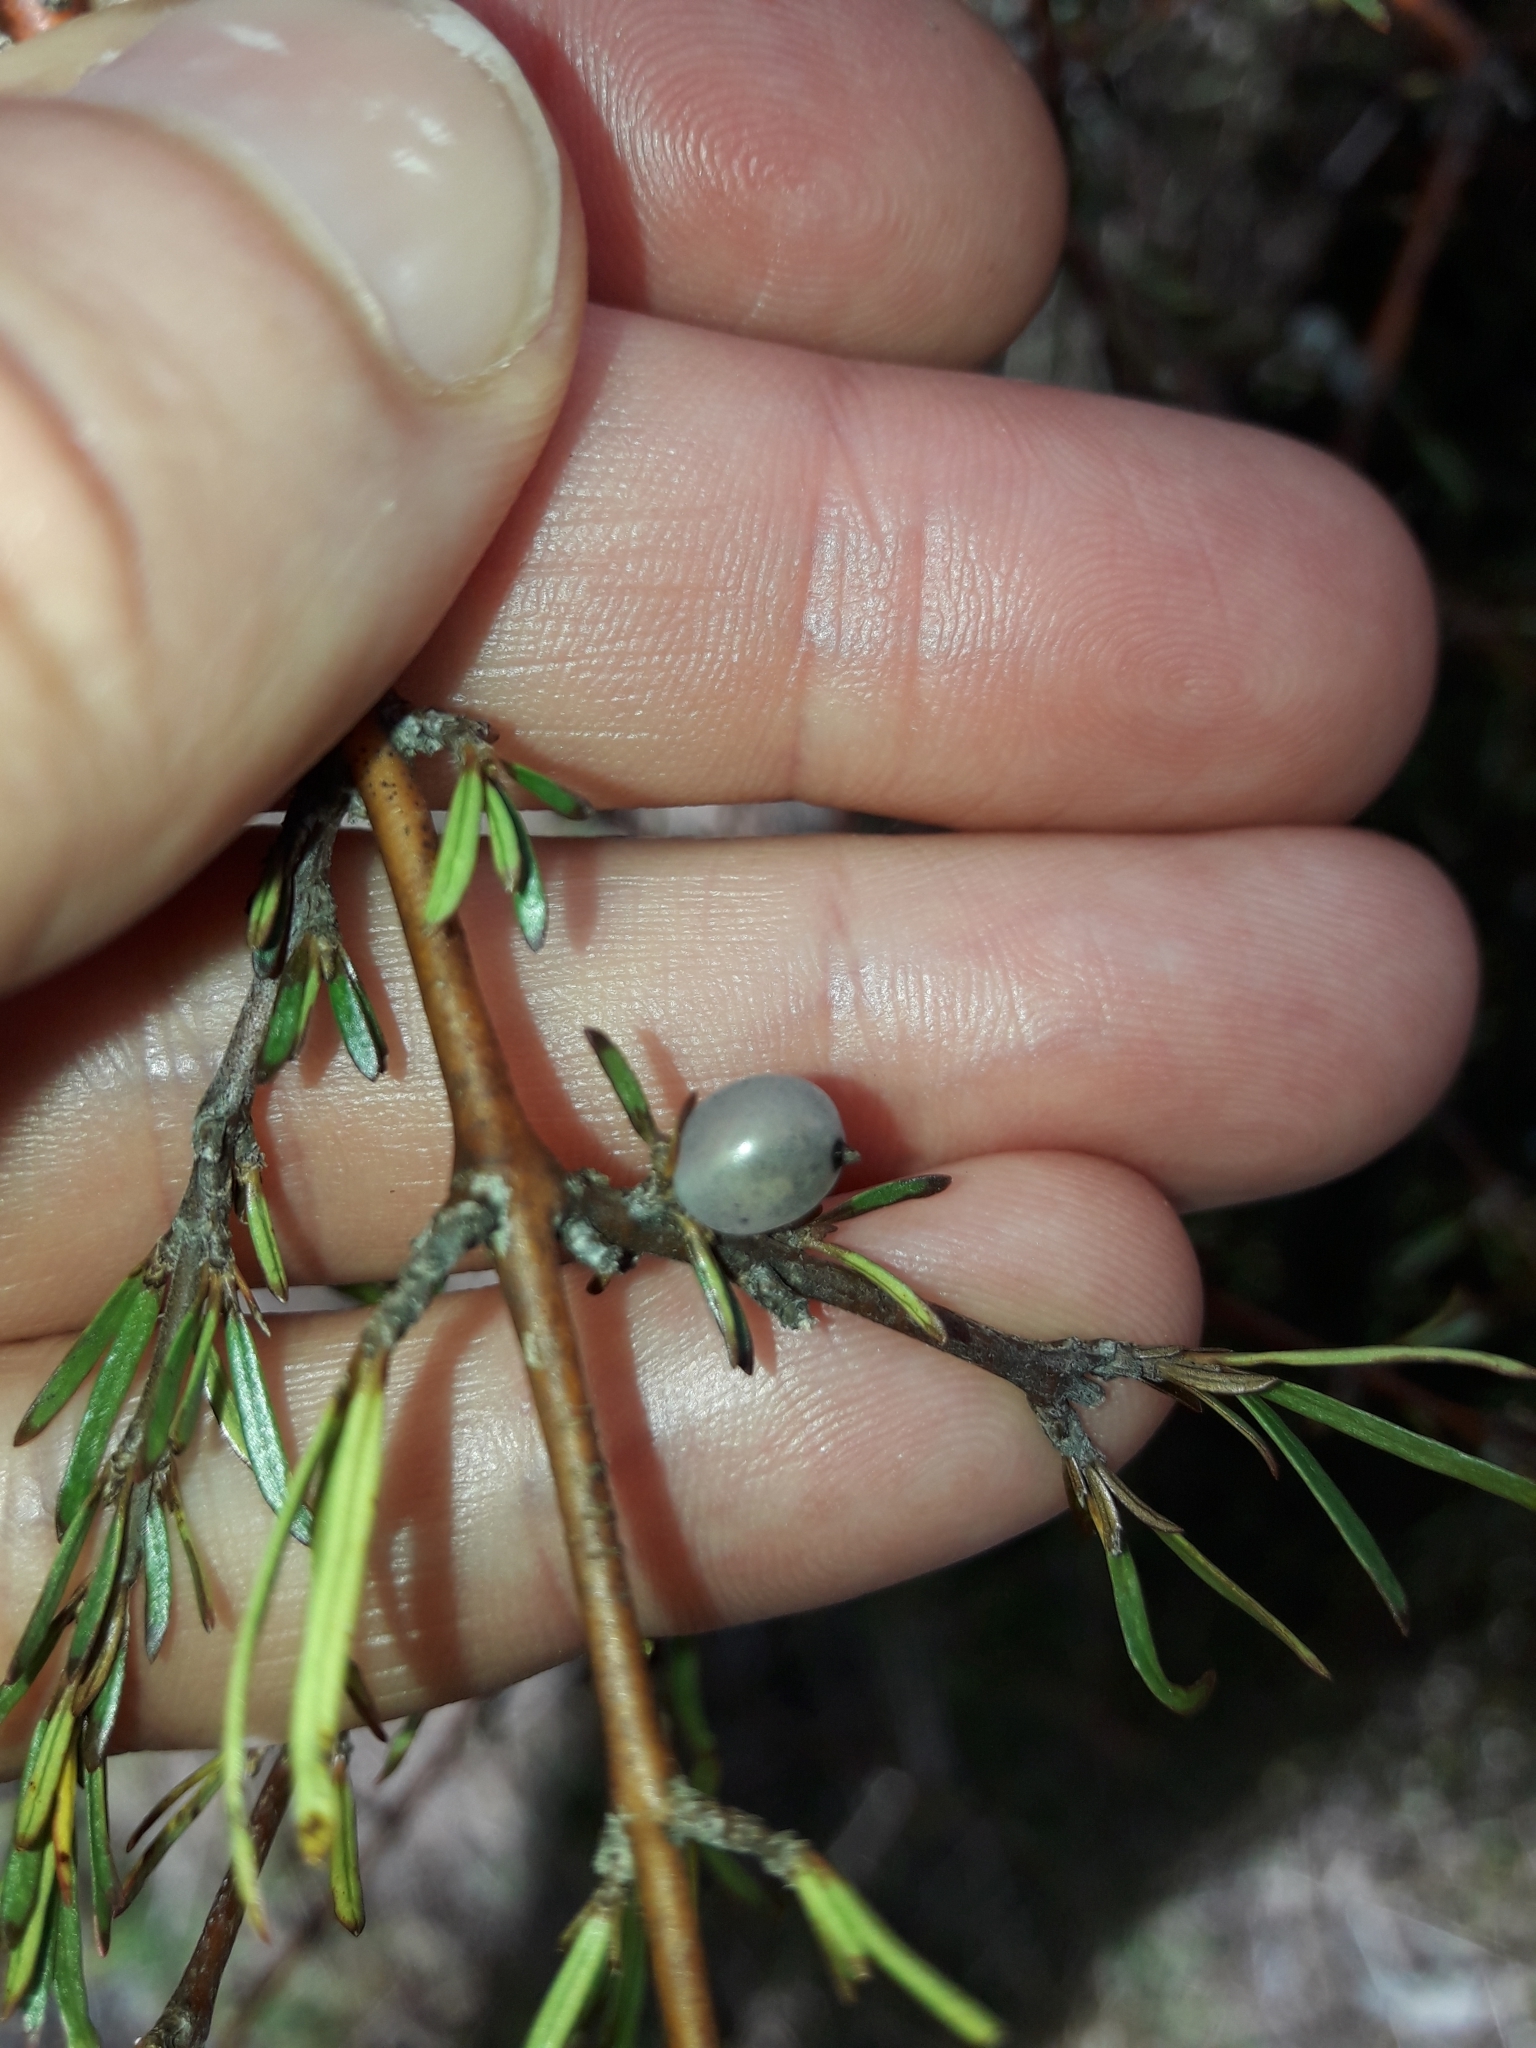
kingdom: Plantae
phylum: Tracheophyta
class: Magnoliopsida
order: Gentianales
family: Rubiaceae
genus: Coprosma
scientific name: Coprosma rugosa
